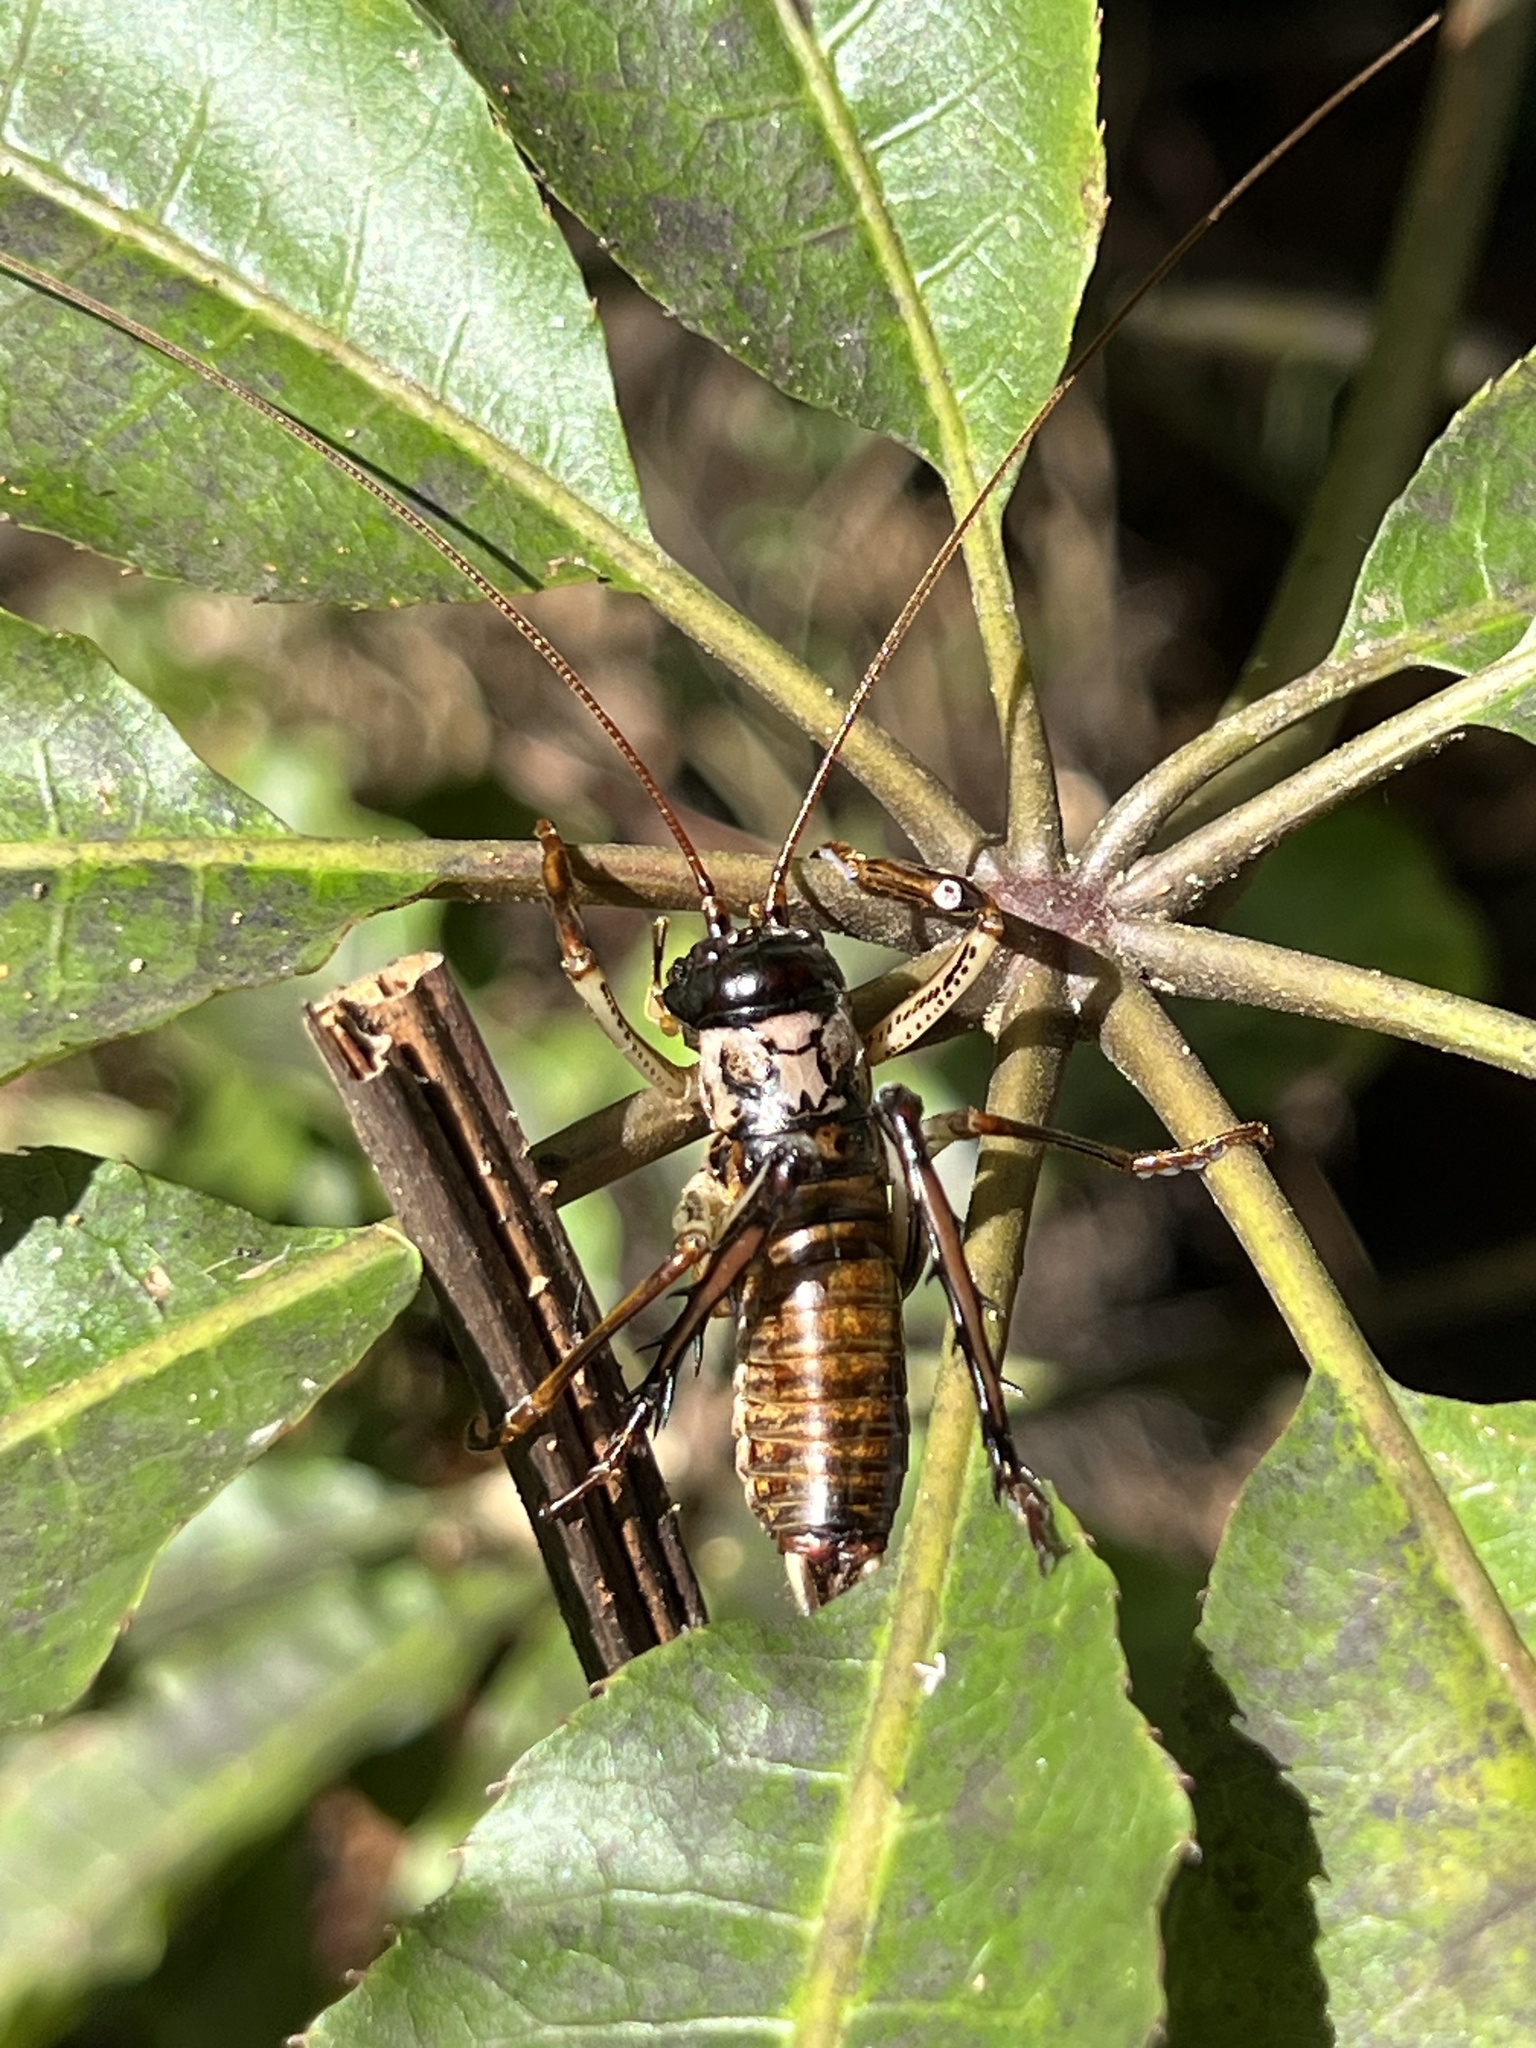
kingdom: Animalia
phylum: Arthropoda
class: Insecta
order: Orthoptera
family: Anostostomatidae
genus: Hemideina
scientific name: Hemideina thoracica
